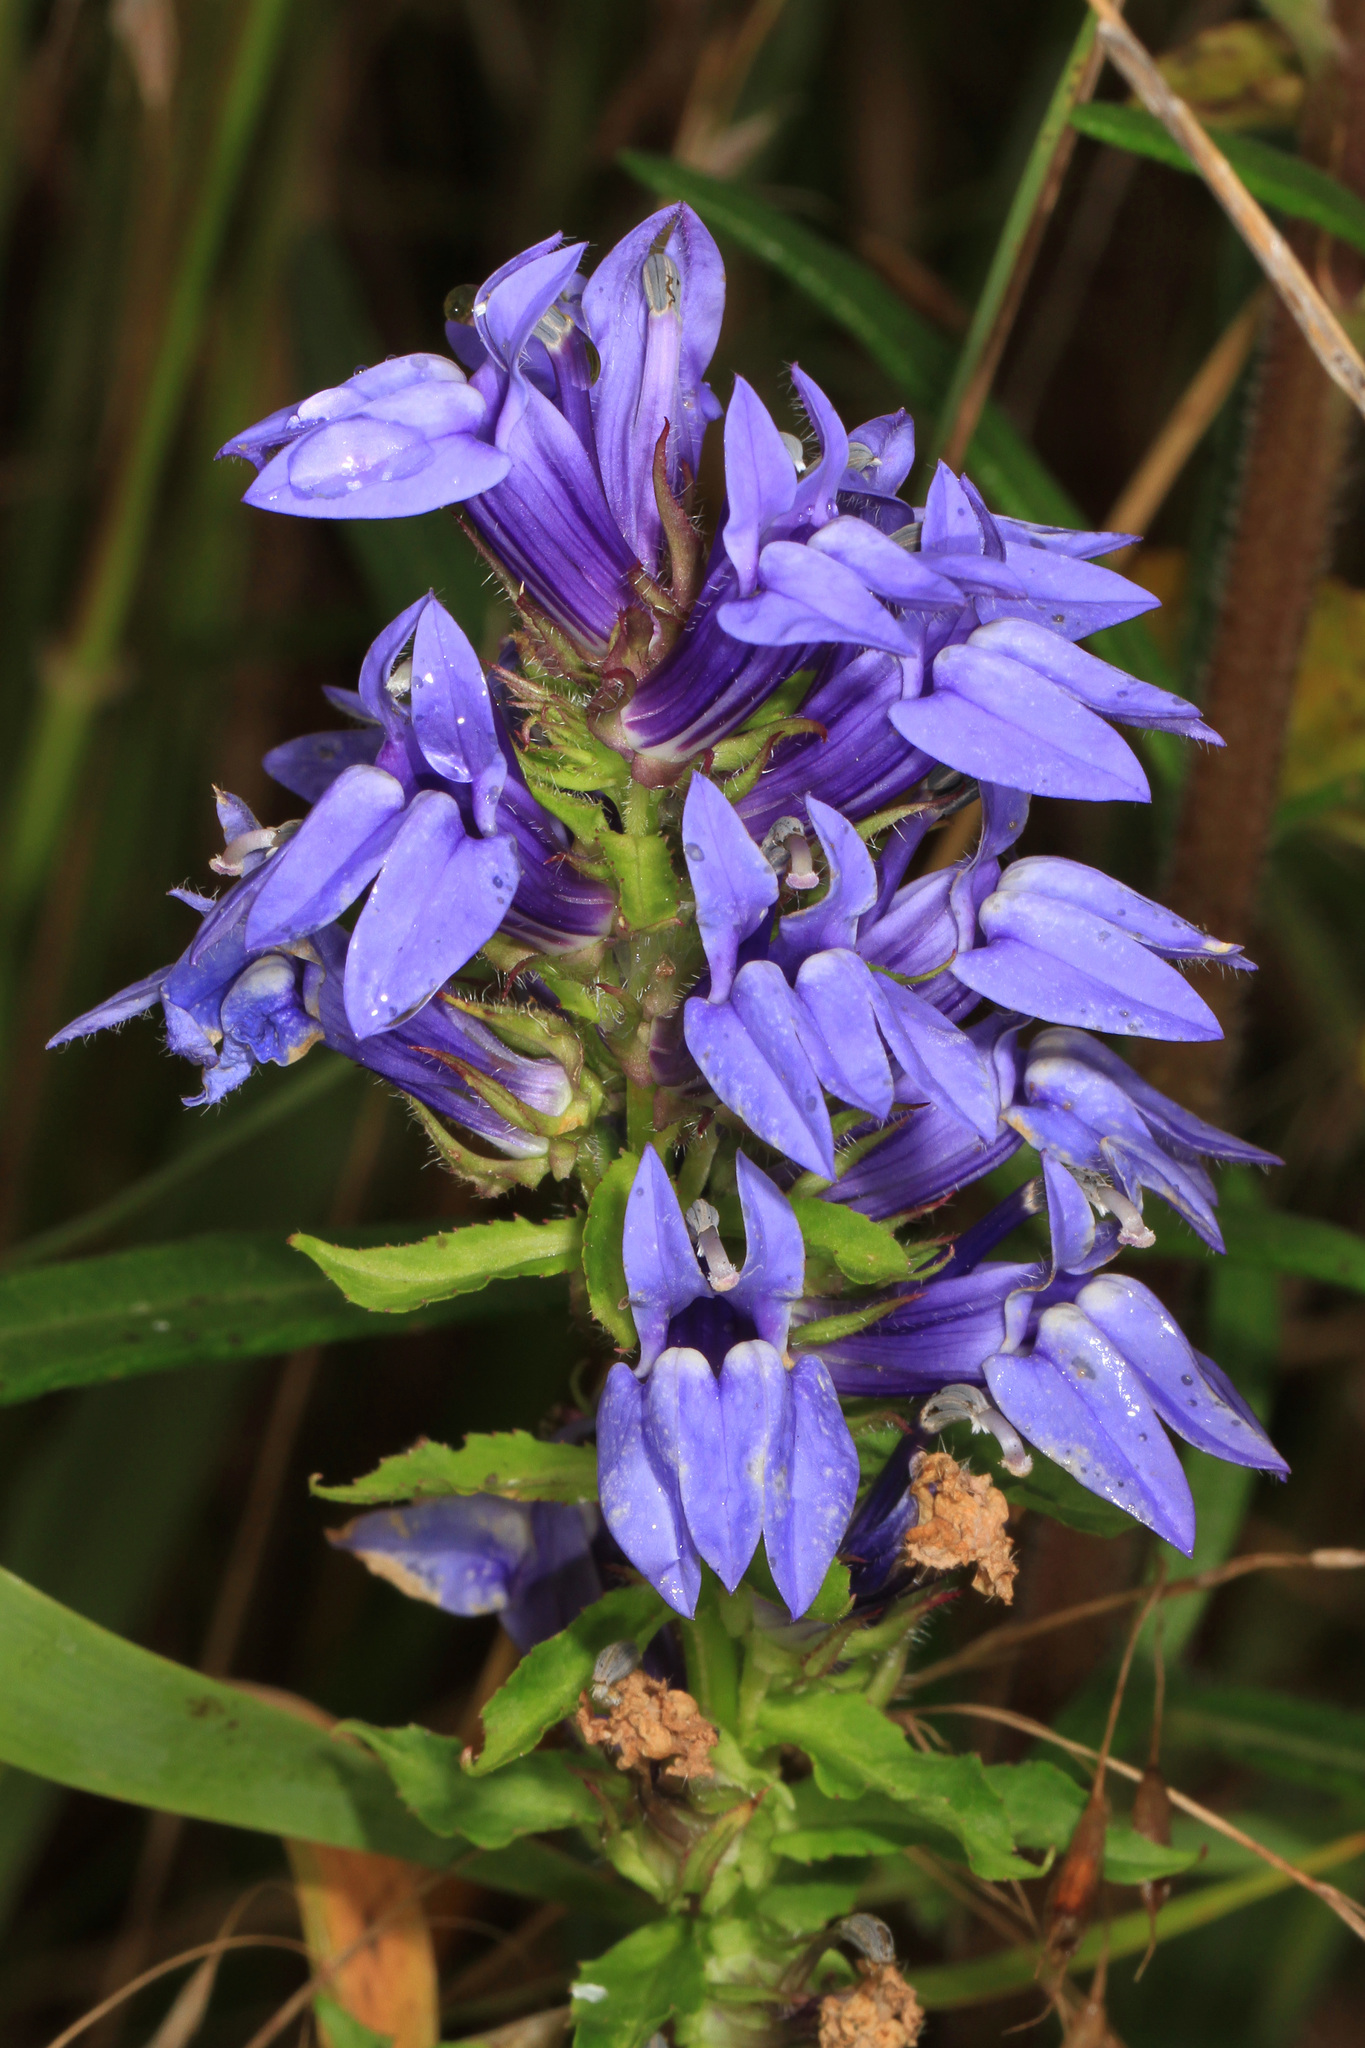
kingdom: Plantae
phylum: Tracheophyta
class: Magnoliopsida
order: Asterales
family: Campanulaceae
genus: Lobelia
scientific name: Lobelia siphilitica
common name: Great lobelia
